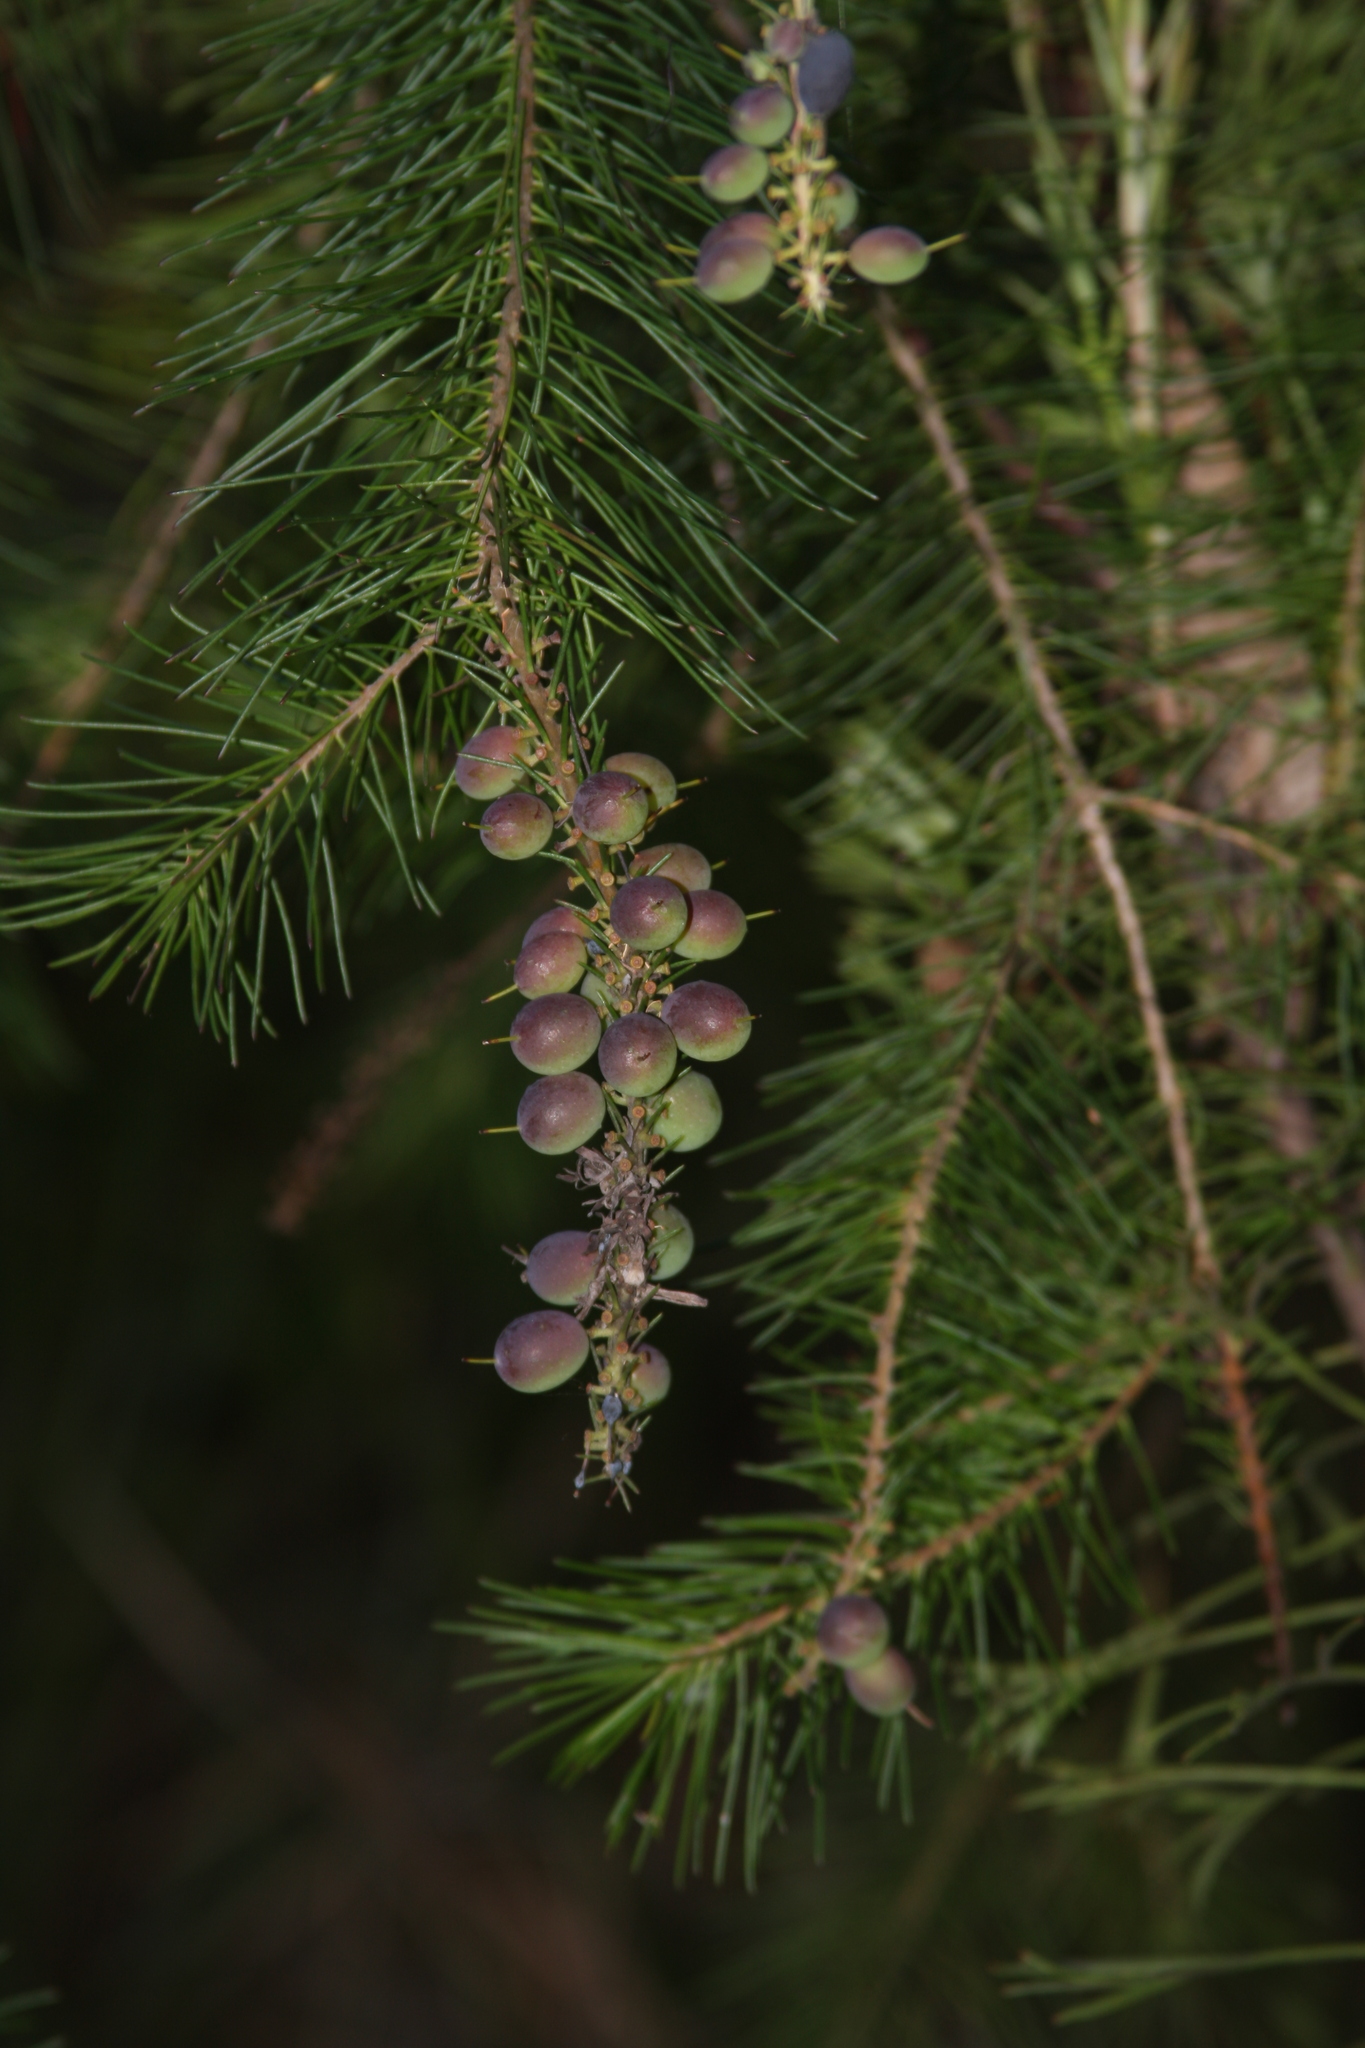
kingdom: Plantae
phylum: Tracheophyta
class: Magnoliopsida
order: Proteales
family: Proteaceae
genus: Persoonia
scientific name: Persoonia pinifolia
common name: Pine-leaf geebung
